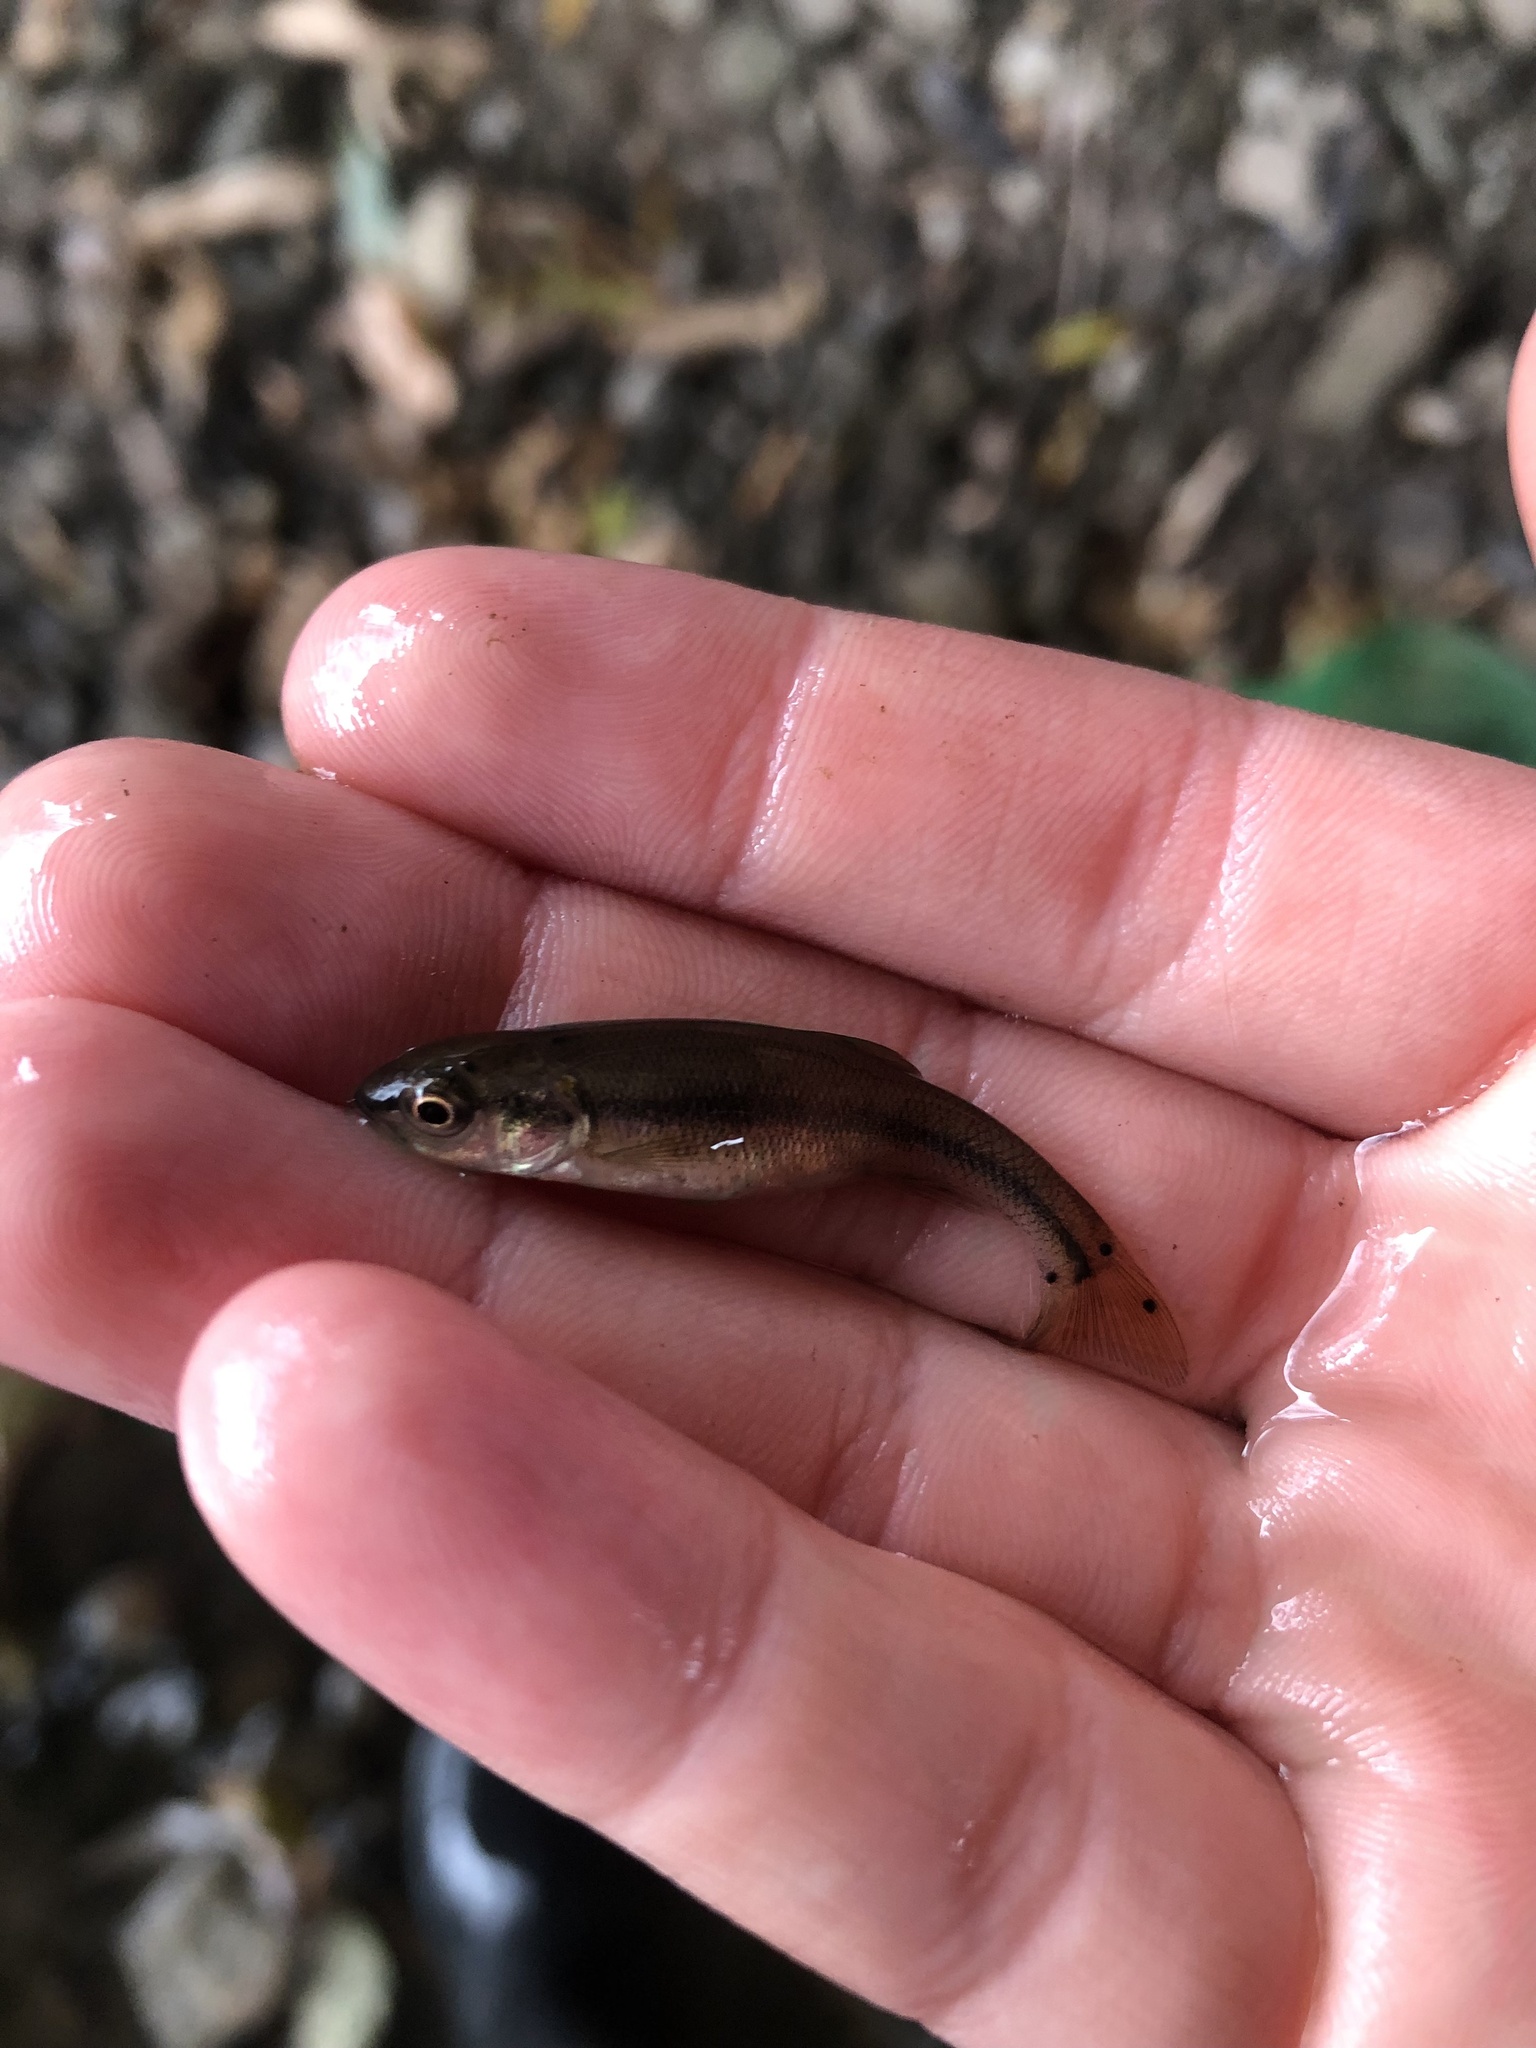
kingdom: Animalia
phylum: Chordata
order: Cypriniformes
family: Cyprinidae
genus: Semotilus
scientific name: Semotilus atromaculatus
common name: Creek chub
